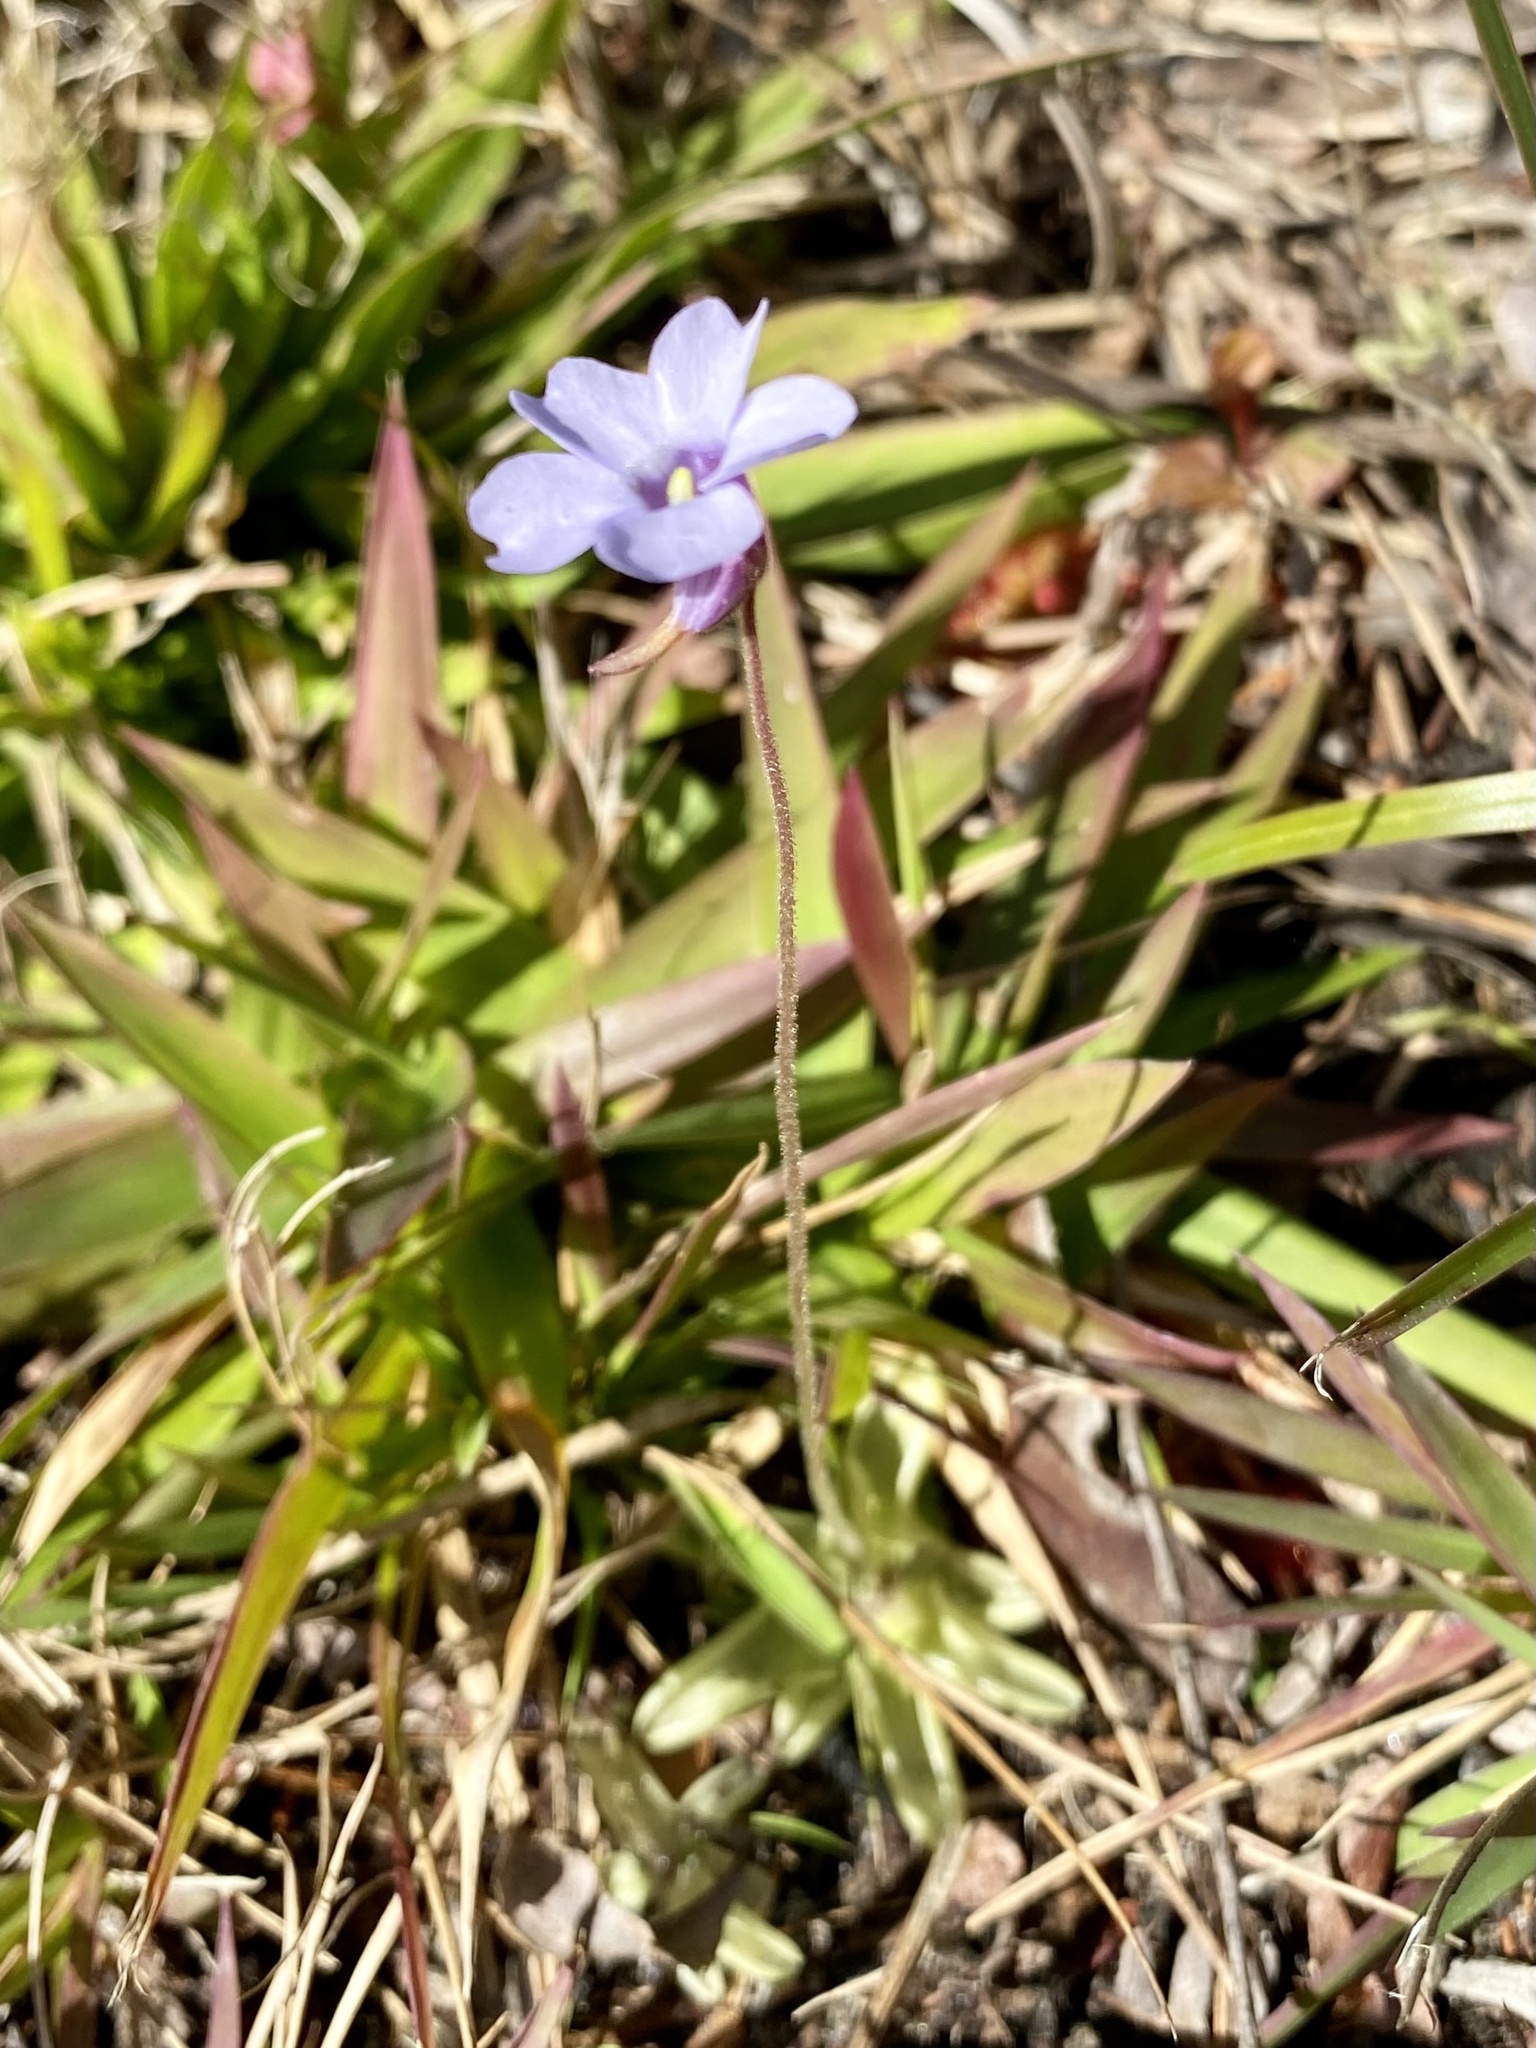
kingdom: Plantae
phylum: Tracheophyta
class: Magnoliopsida
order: Lamiales
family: Lentibulariaceae
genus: Pinguicula
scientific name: Pinguicula pumila
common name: Small butterwort
